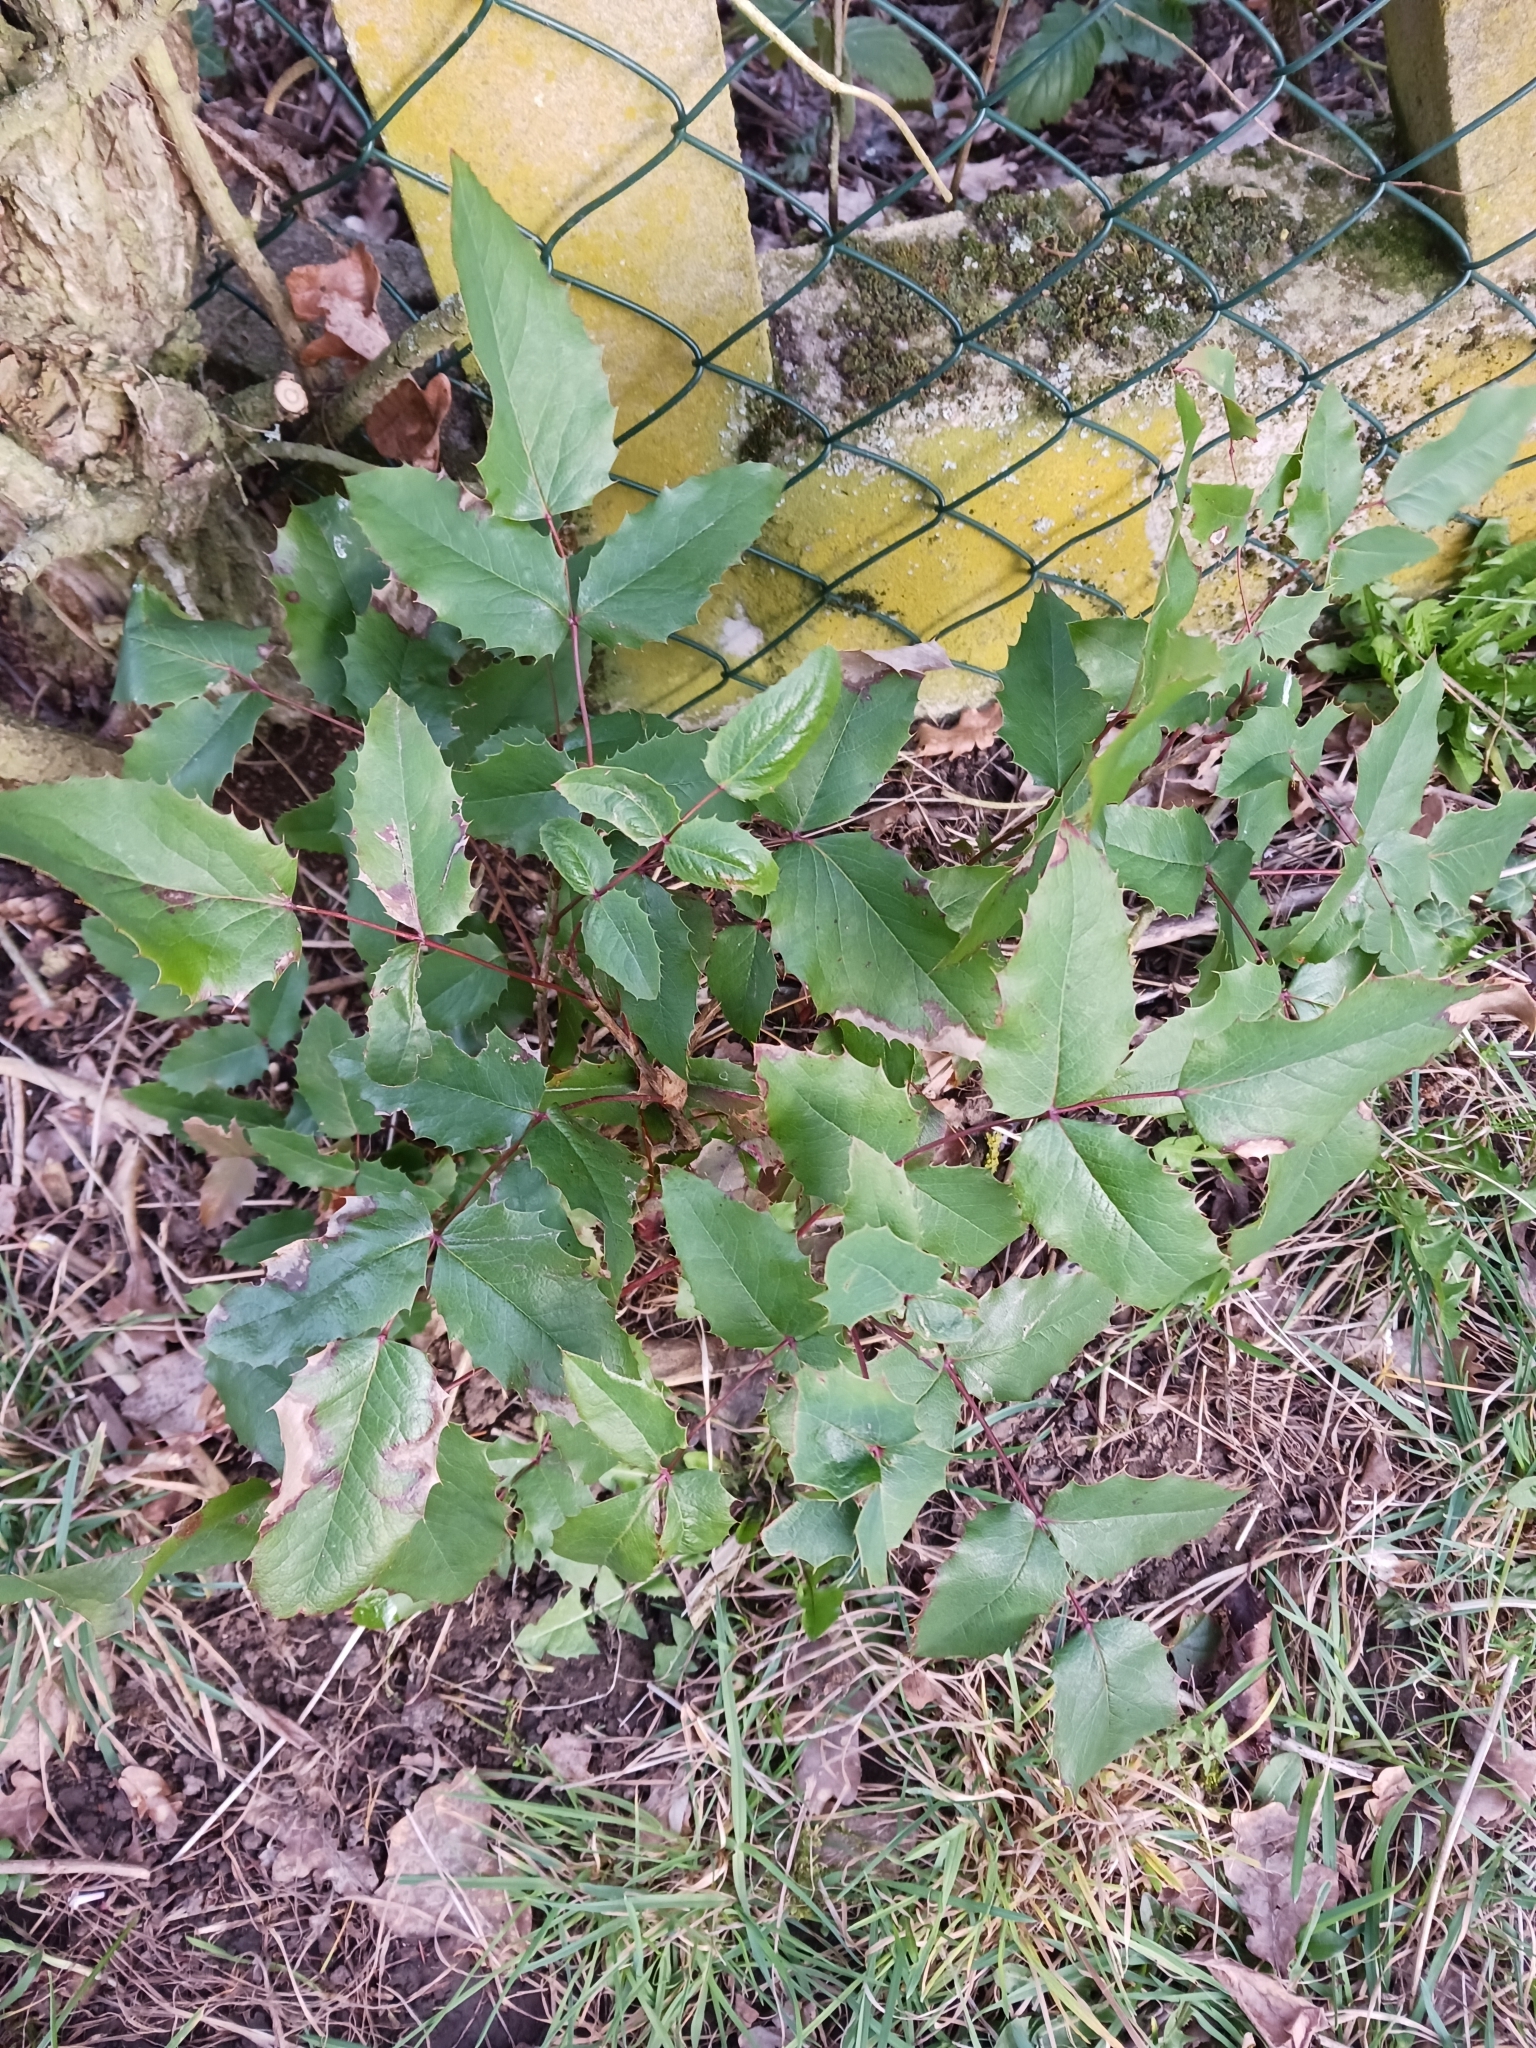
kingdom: Plantae
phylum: Tracheophyta
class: Magnoliopsida
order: Ranunculales
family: Berberidaceae
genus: Mahonia
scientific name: Mahonia aquifolium
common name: Oregon-grape
